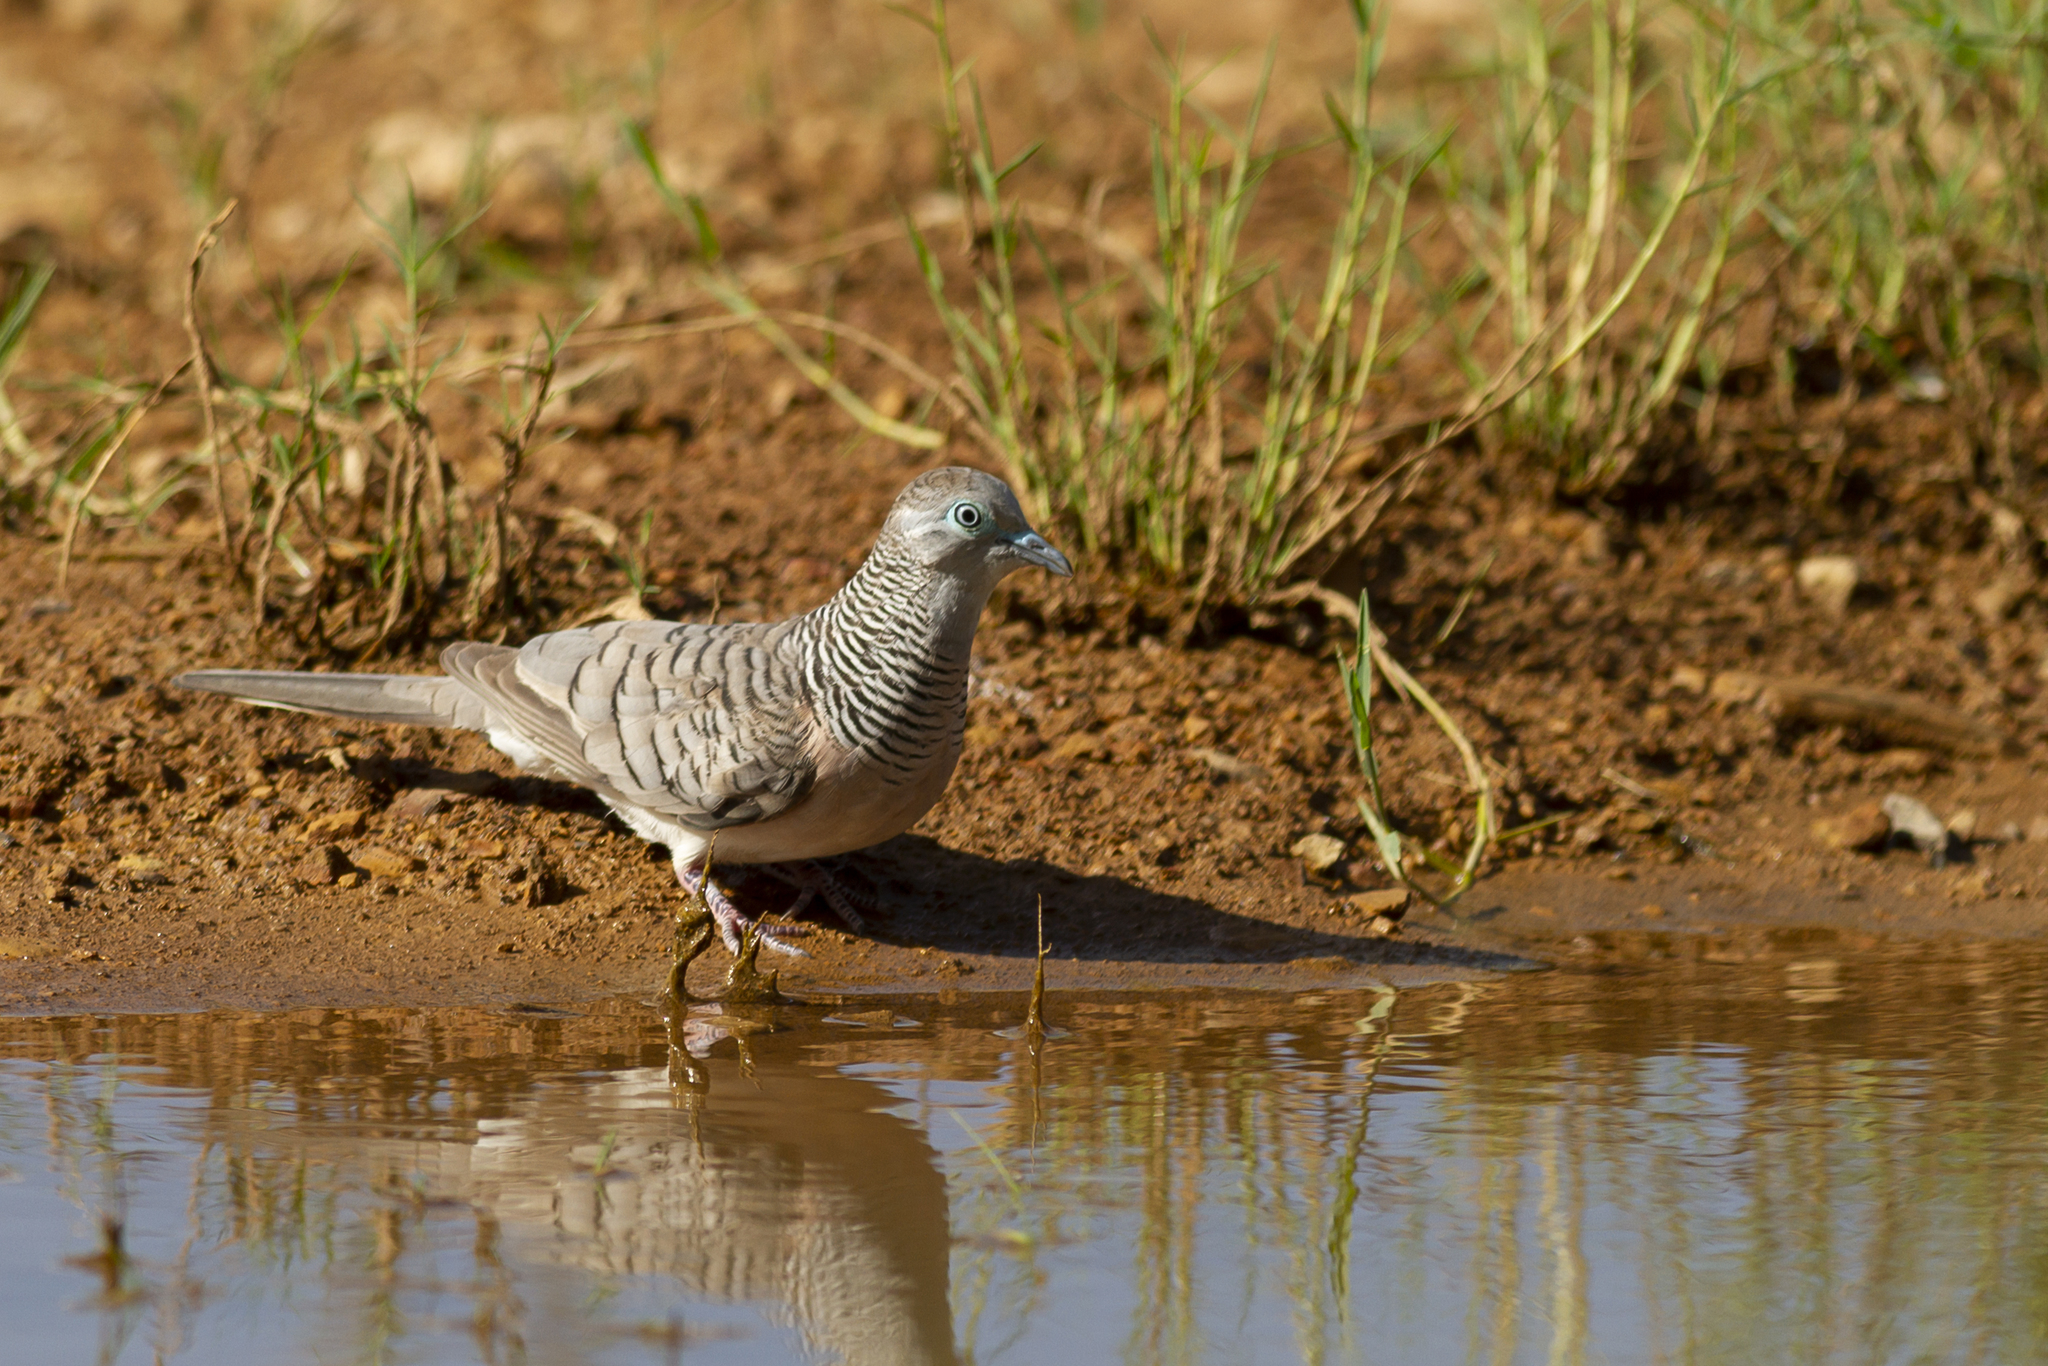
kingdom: Animalia
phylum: Chordata
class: Aves
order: Columbiformes
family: Columbidae
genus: Geopelia
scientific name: Geopelia placida
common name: Peaceful dove
